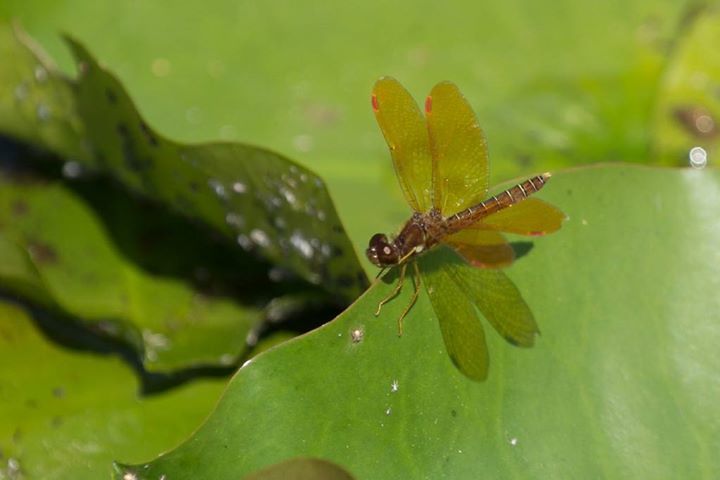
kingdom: Animalia
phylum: Arthropoda
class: Insecta
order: Odonata
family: Libellulidae
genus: Perithemis
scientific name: Perithemis tenera
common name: Eastern amberwing
